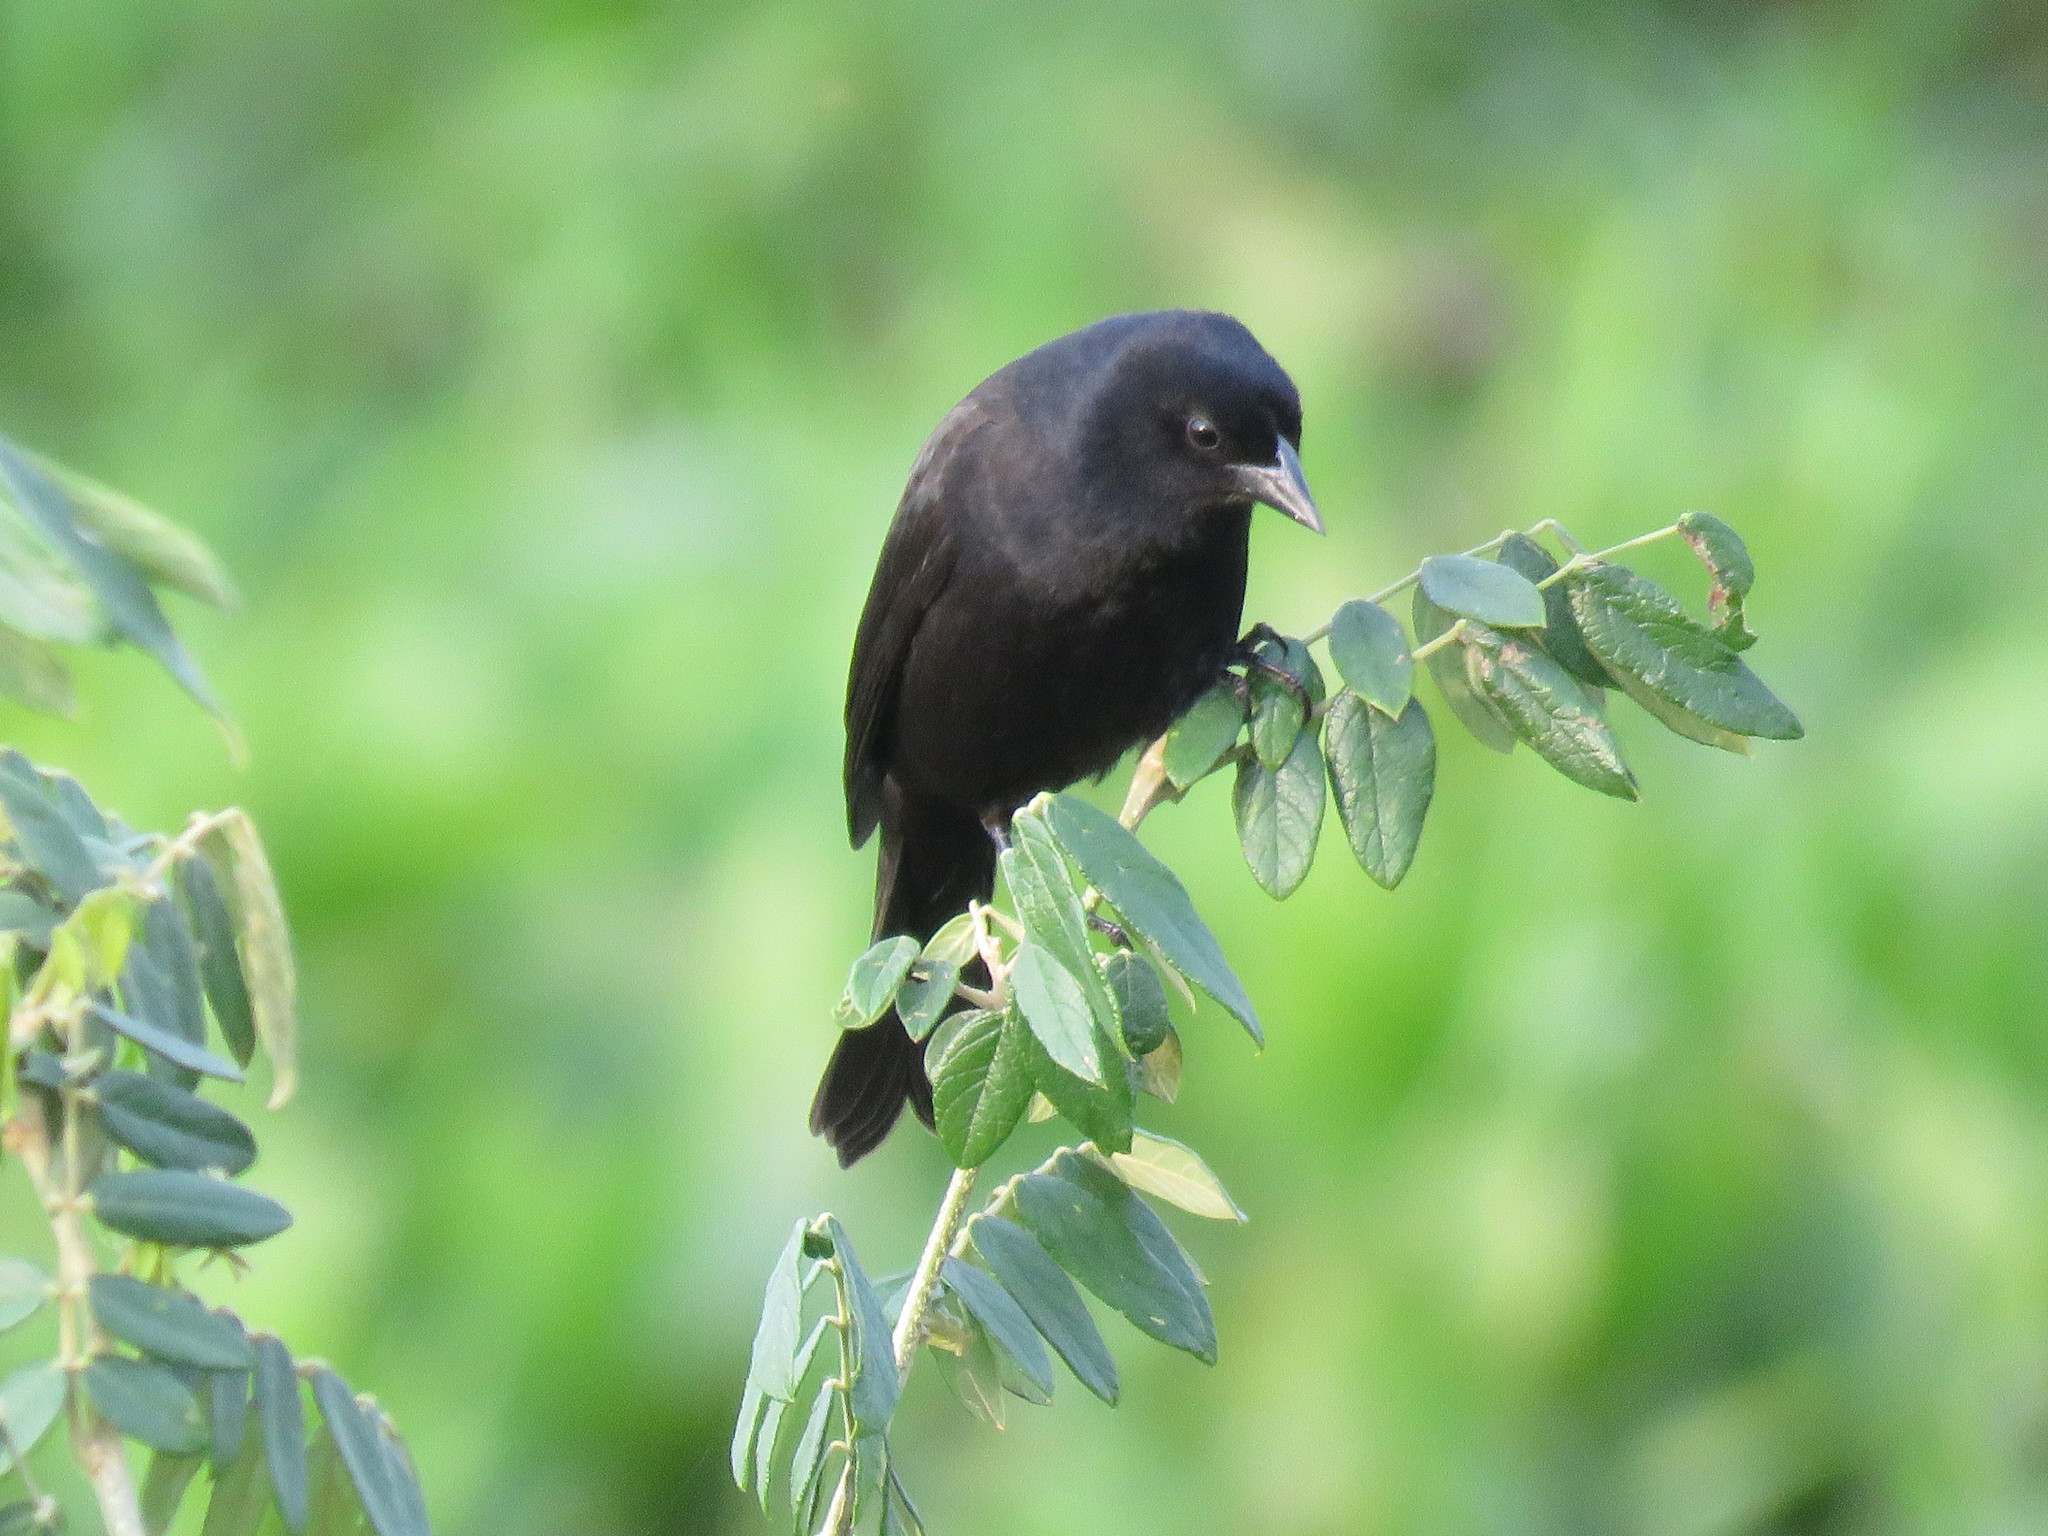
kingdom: Animalia
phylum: Chordata
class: Aves
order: Passeriformes
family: Icteridae
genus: Lampropsar
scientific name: Lampropsar tanagrinus
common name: Velvet-fronted grackle
